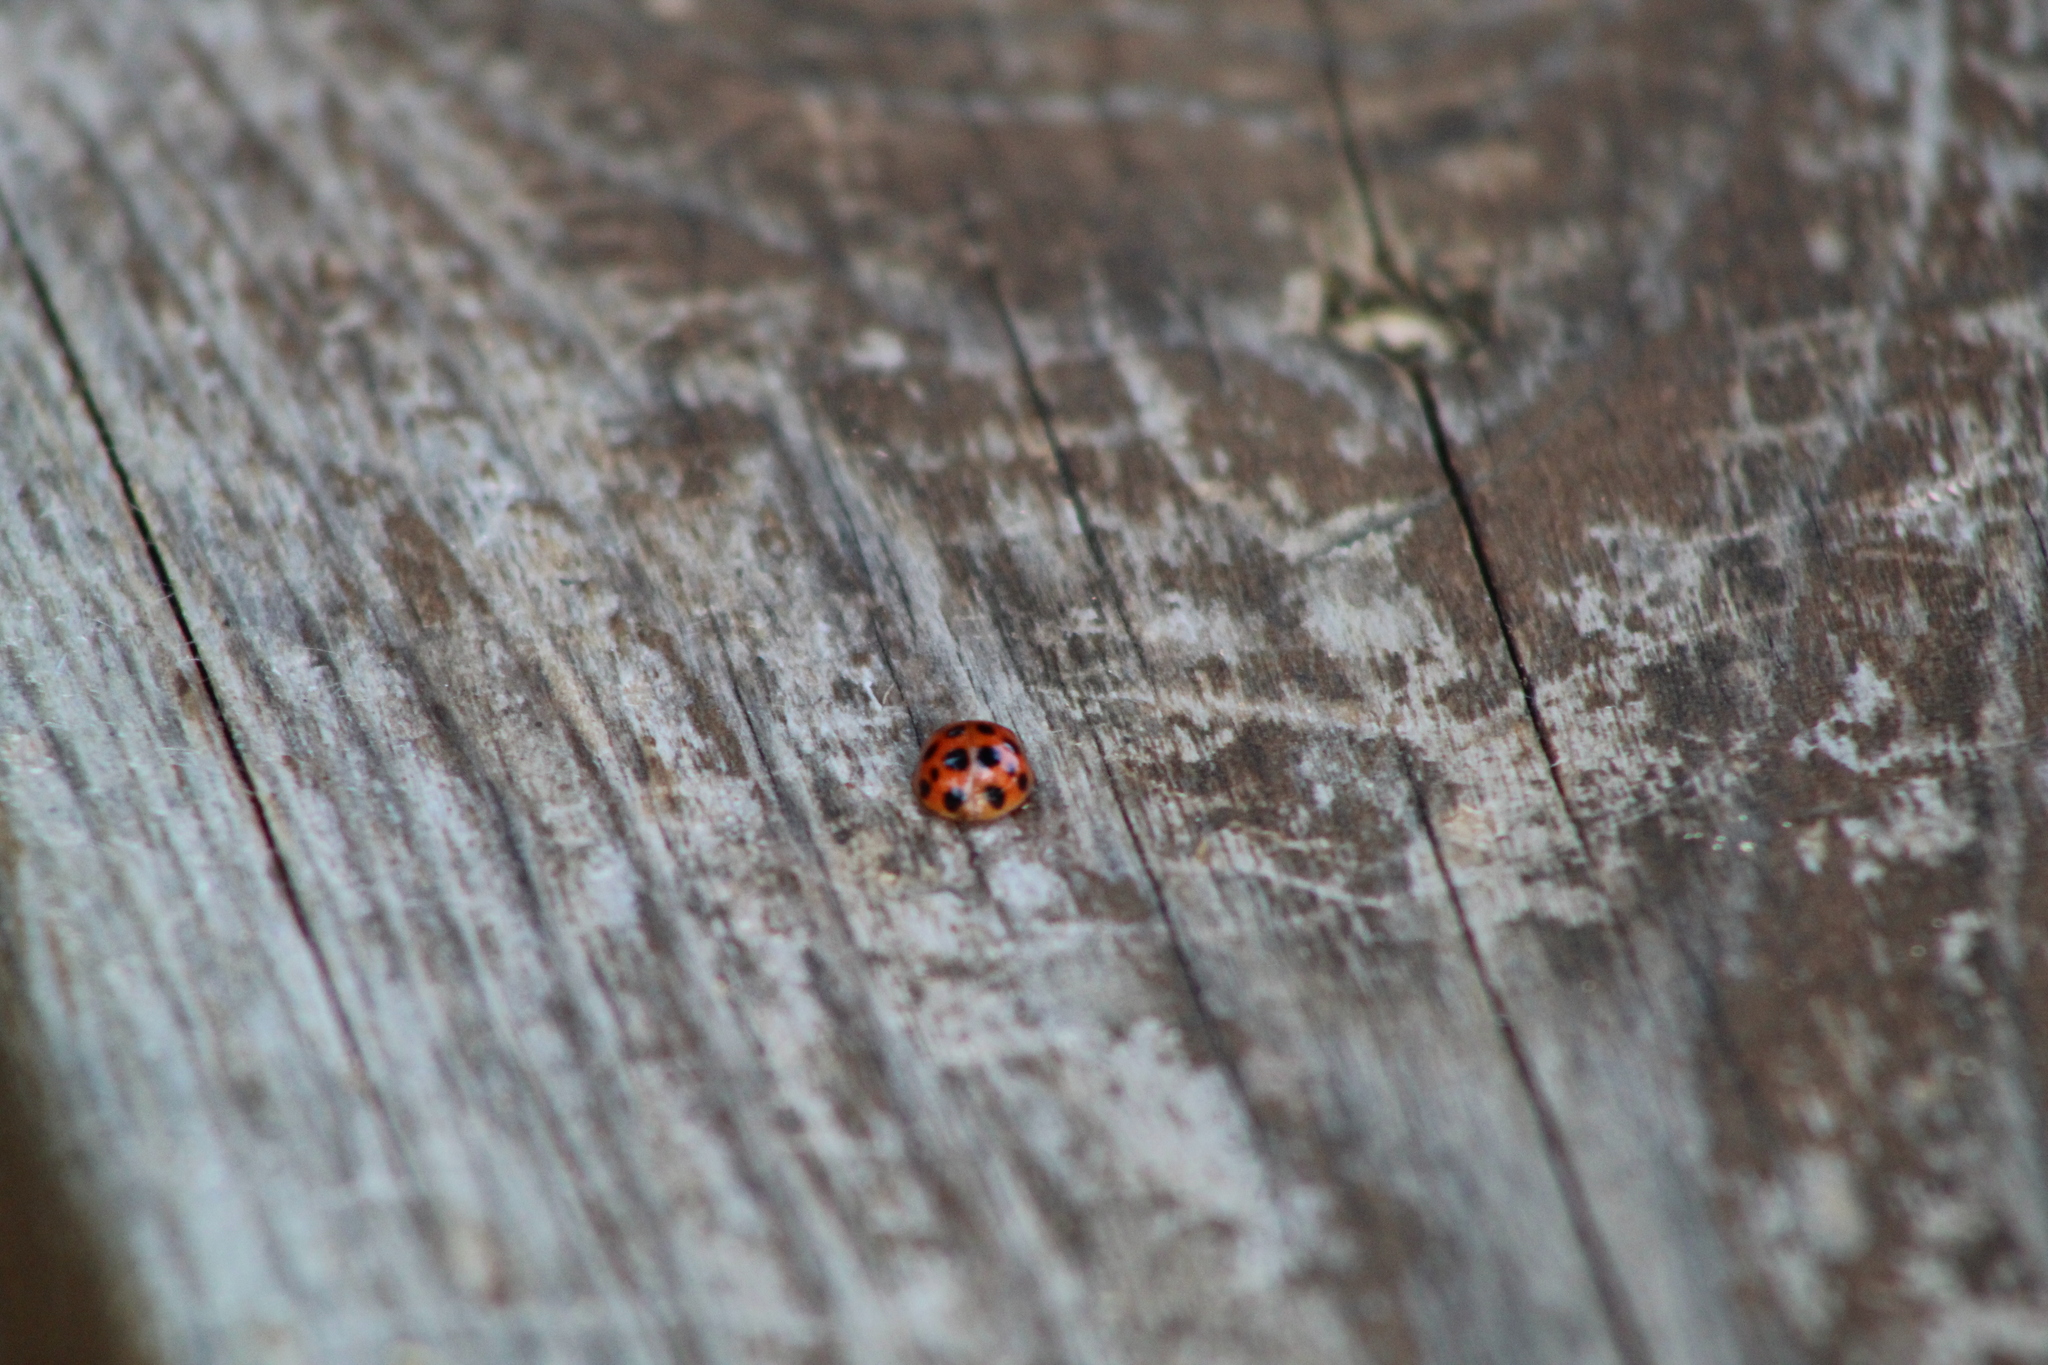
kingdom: Animalia
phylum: Arthropoda
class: Insecta
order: Coleoptera
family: Coccinellidae
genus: Harmonia
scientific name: Harmonia axyridis
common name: Harlequin ladybird
